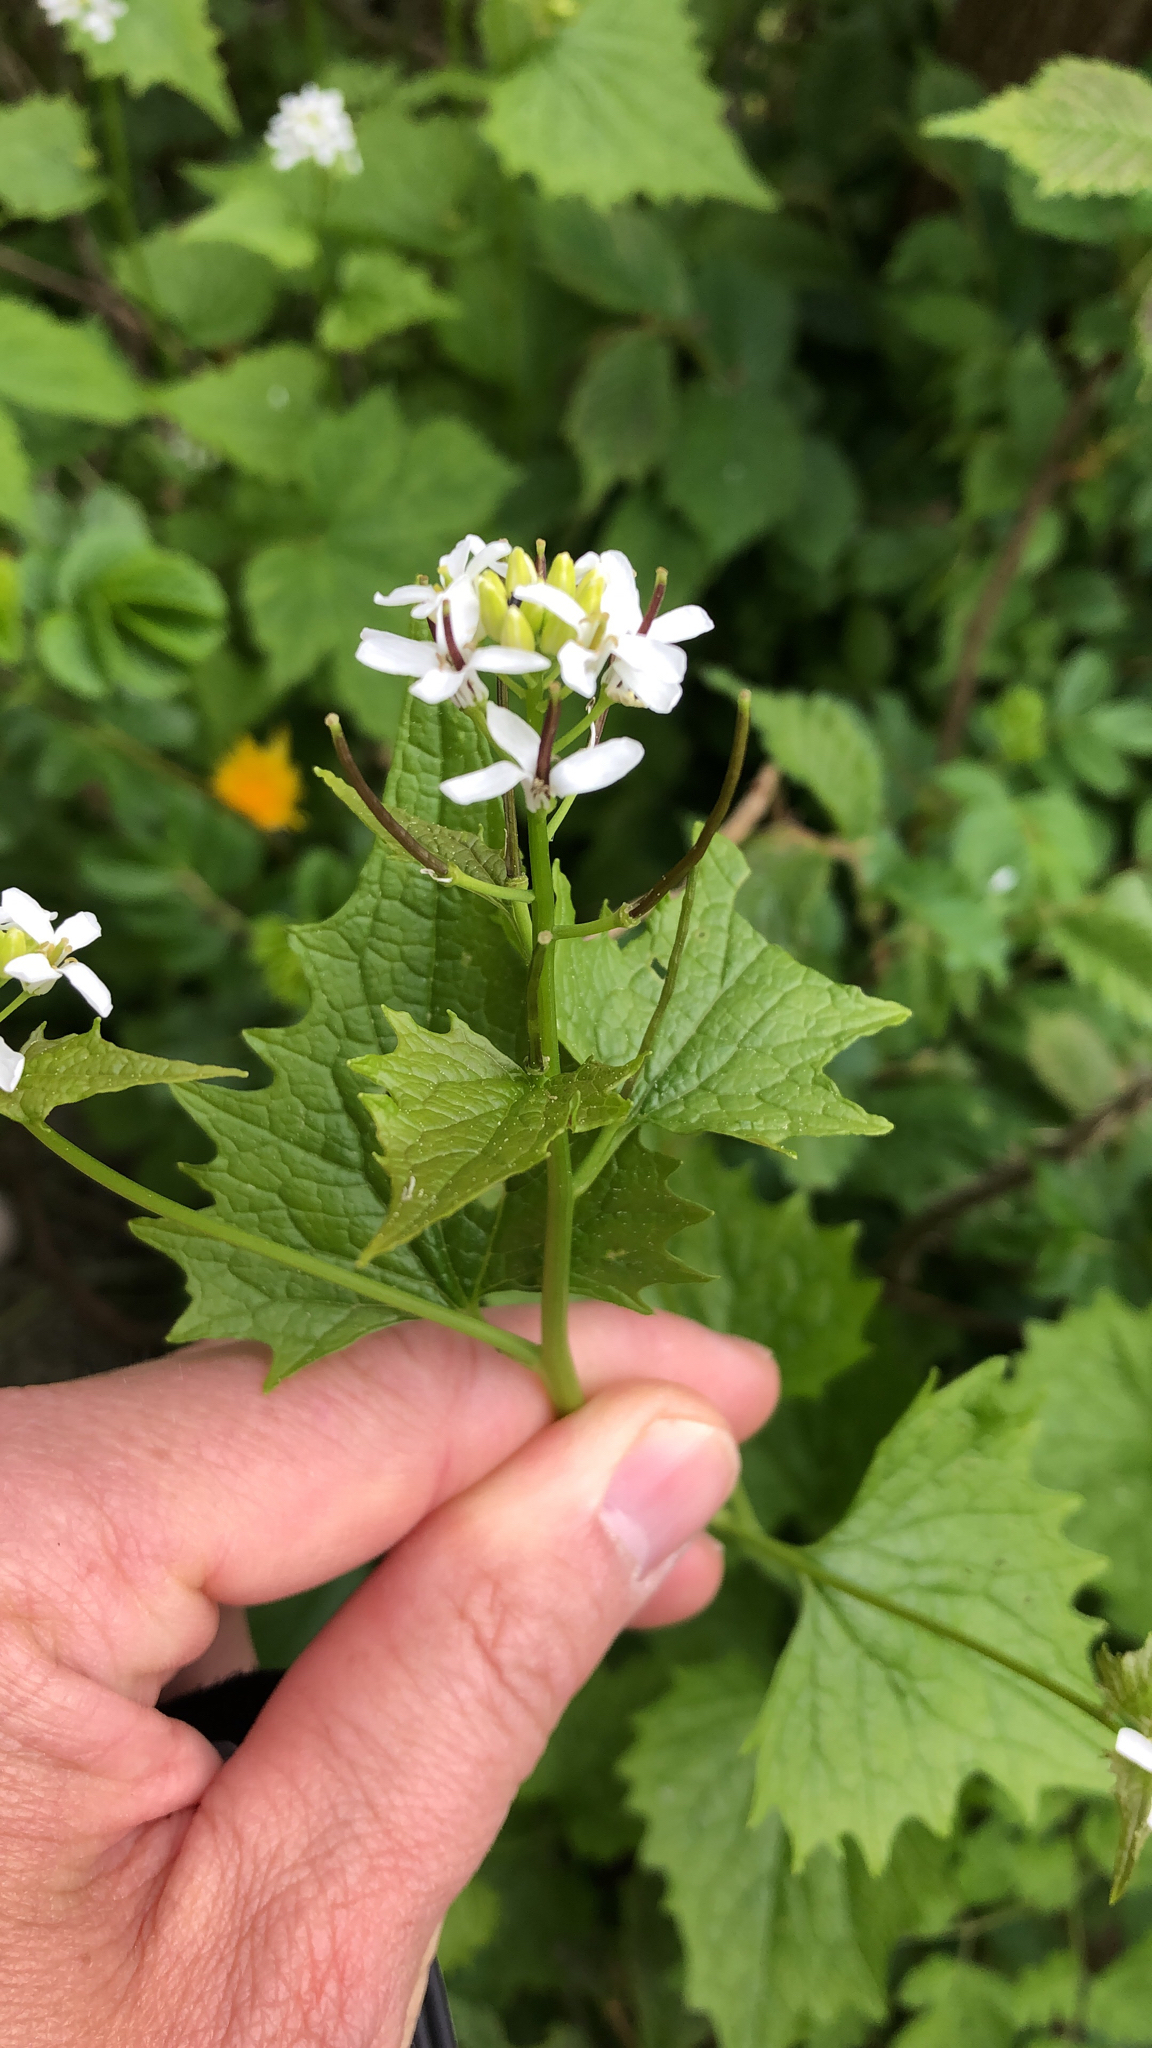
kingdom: Plantae
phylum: Tracheophyta
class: Magnoliopsida
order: Brassicales
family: Brassicaceae
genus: Alliaria
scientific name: Alliaria petiolata
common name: Garlic mustard
